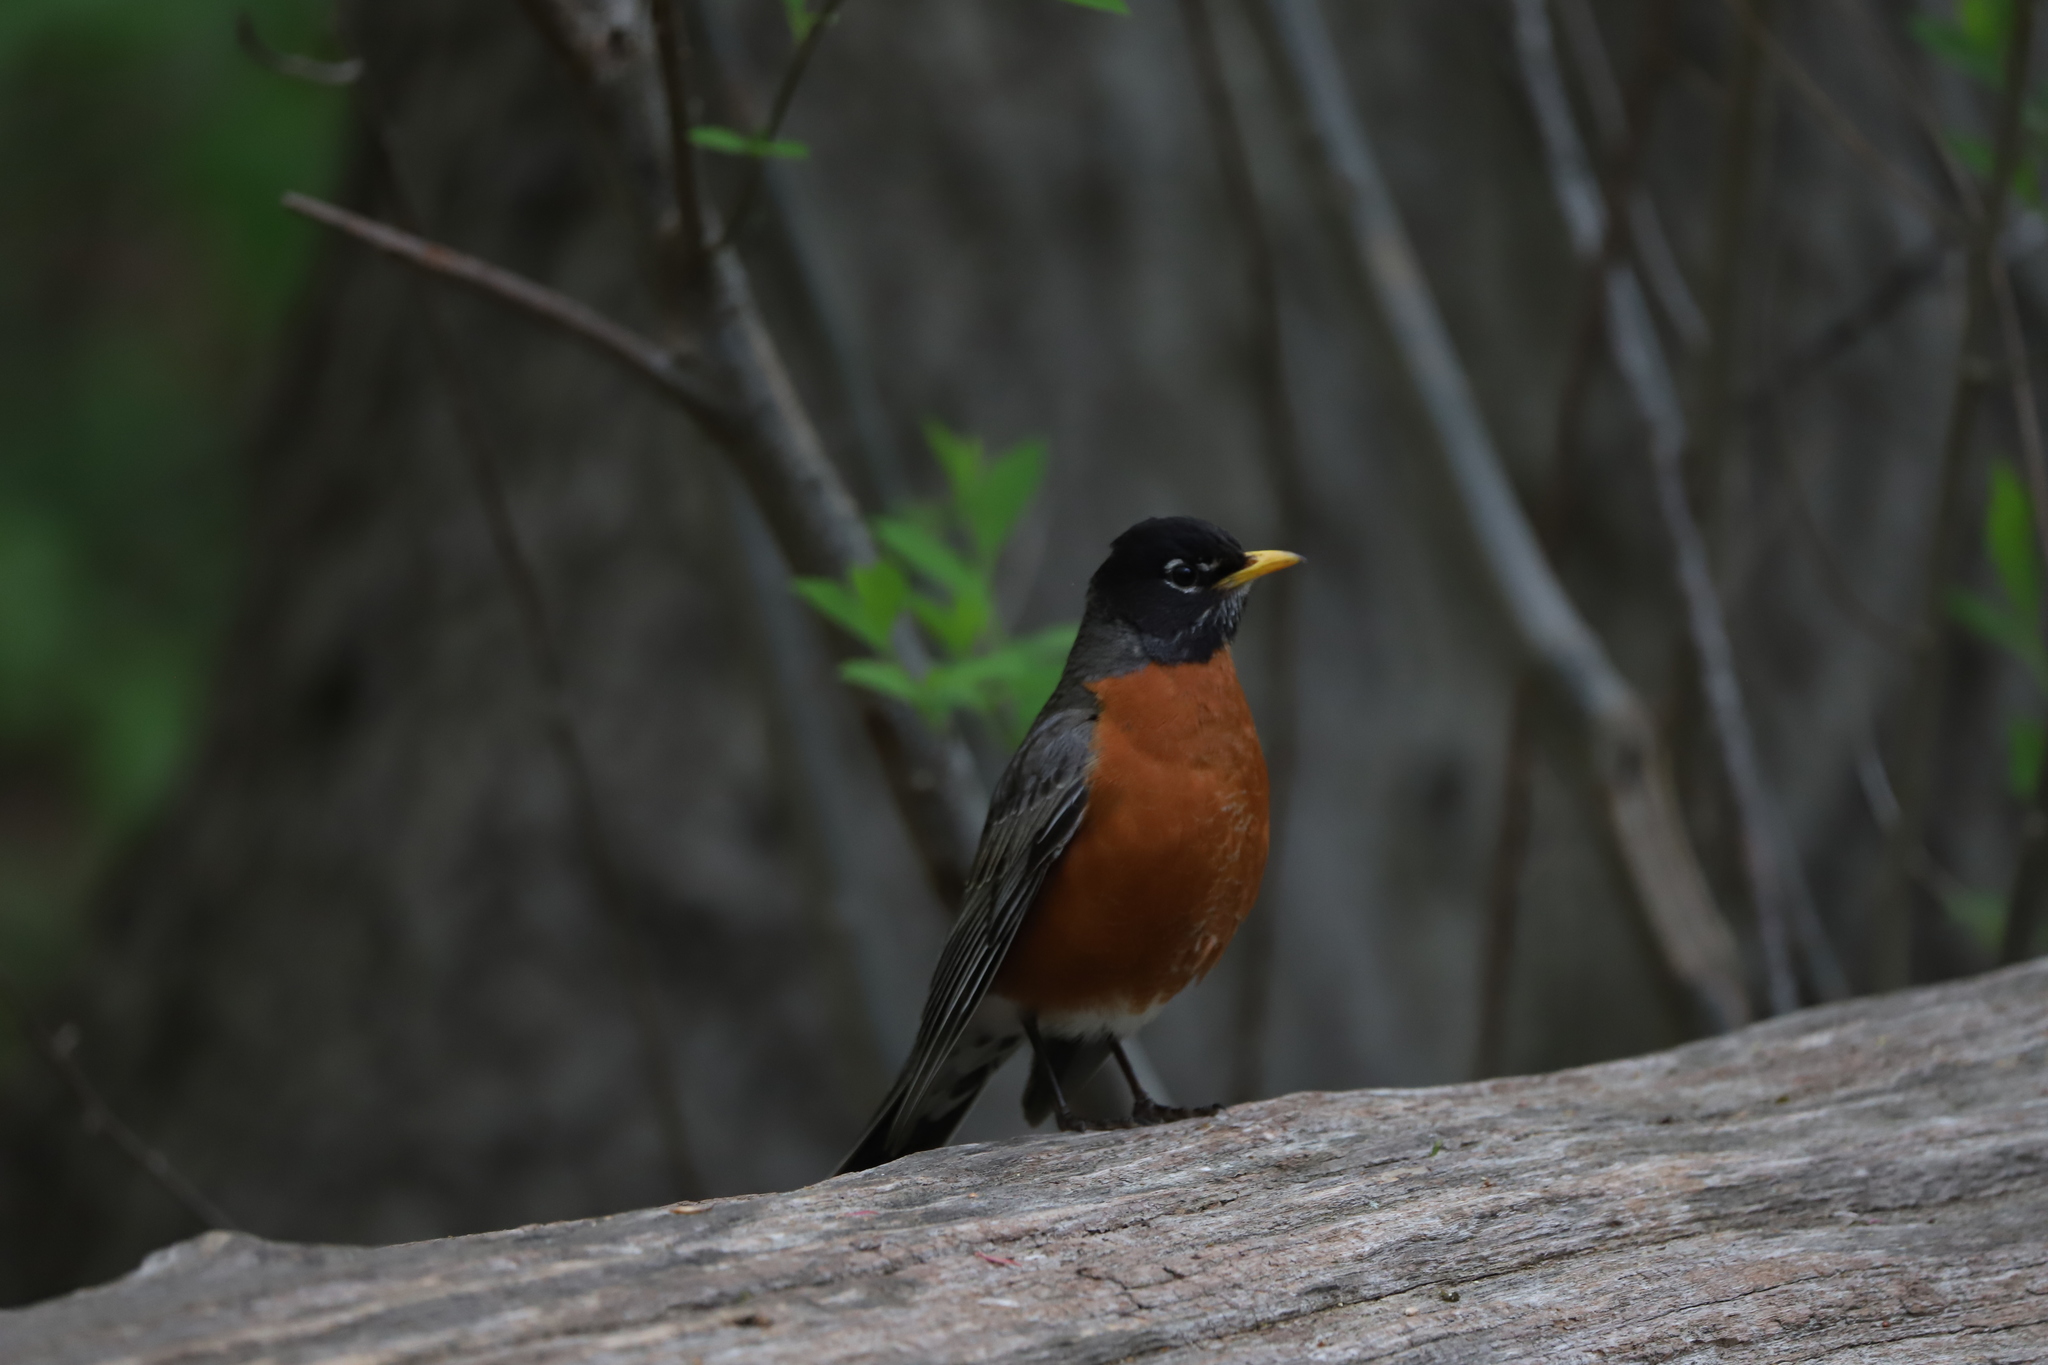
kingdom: Animalia
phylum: Chordata
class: Aves
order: Passeriformes
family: Turdidae
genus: Turdus
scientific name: Turdus migratorius
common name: American robin
